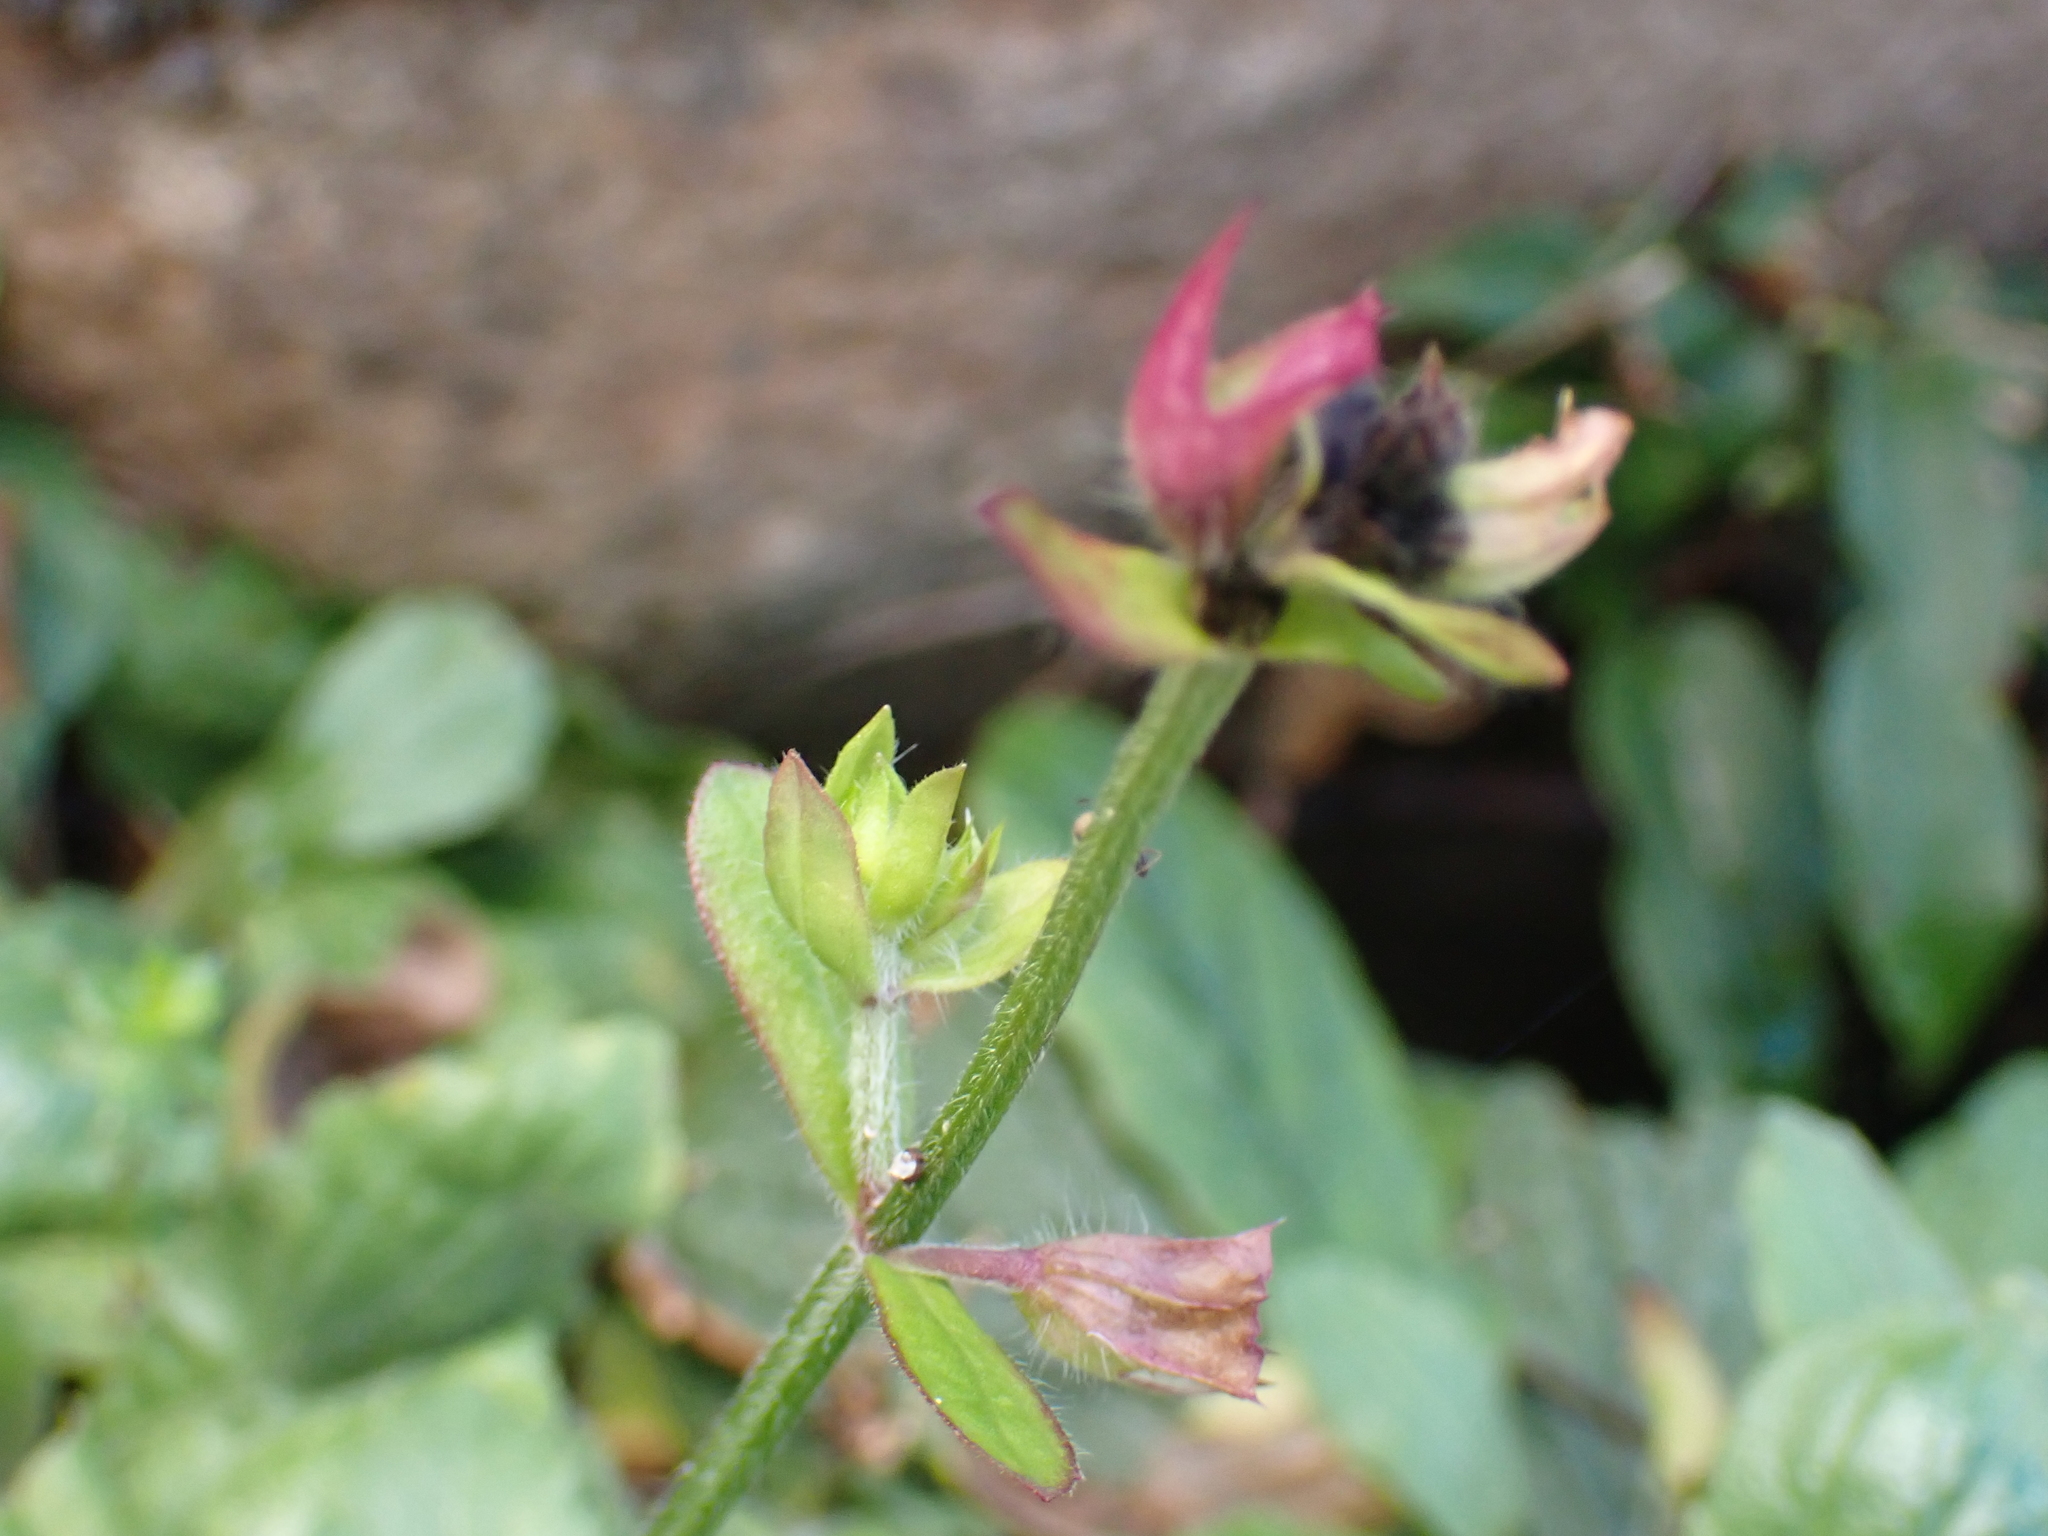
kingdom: Plantae
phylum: Tracheophyta
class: Magnoliopsida
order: Lamiales
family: Lamiaceae
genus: Salvia
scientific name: Salvia lyrata
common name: Cancerweed
